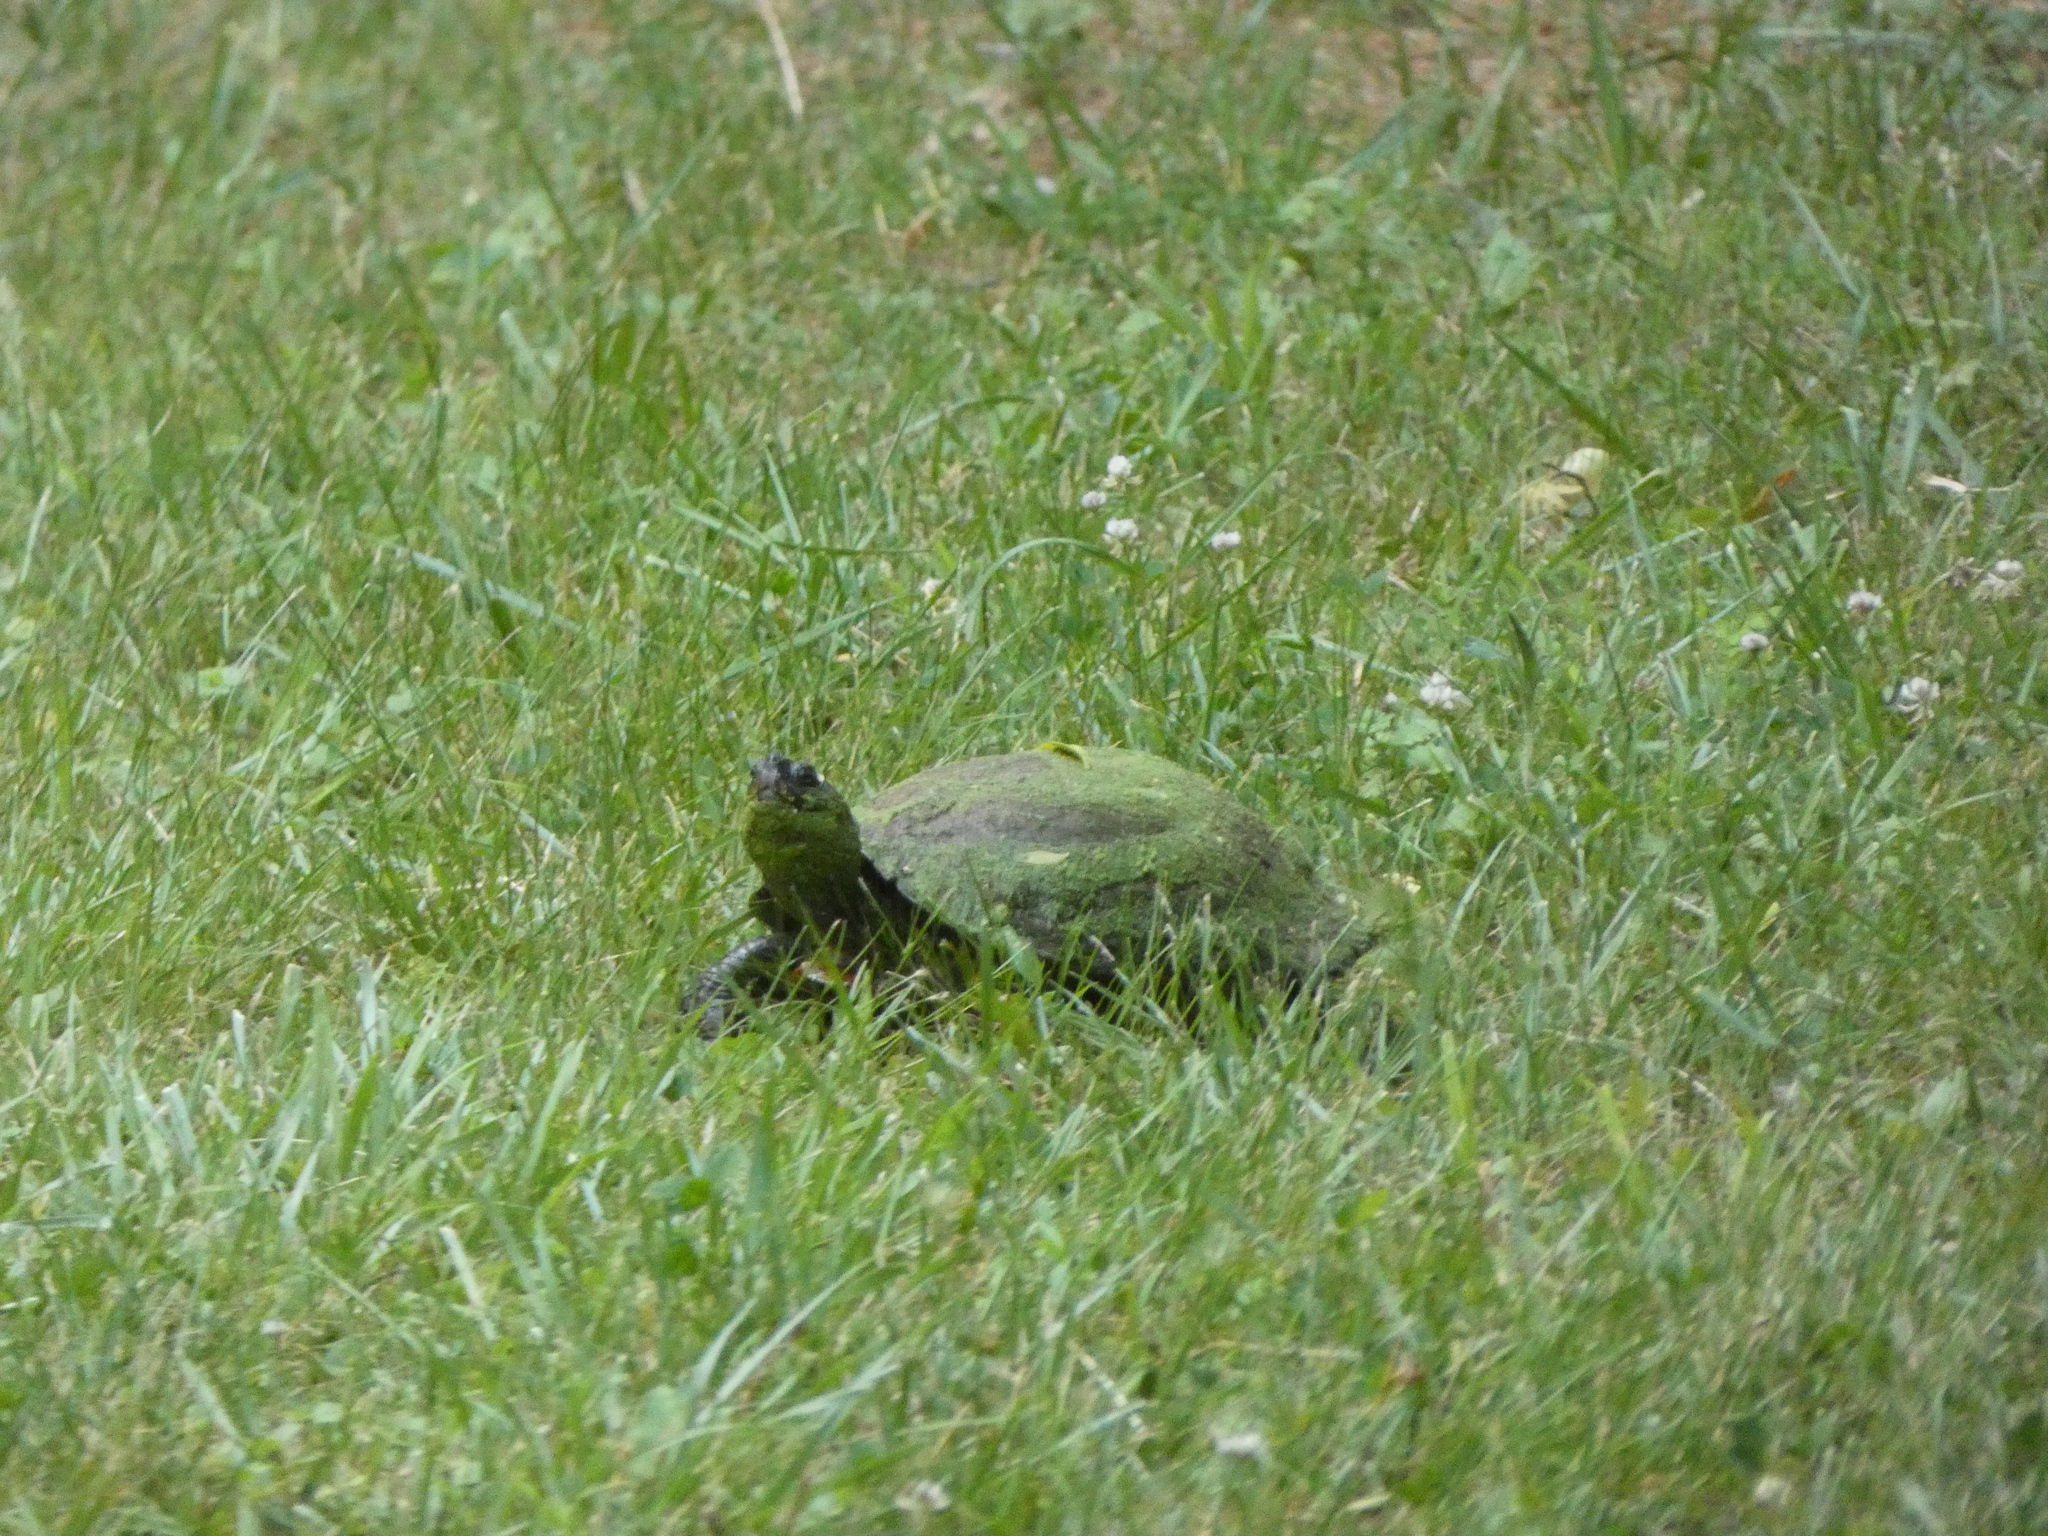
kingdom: Animalia
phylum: Chordata
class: Testudines
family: Emydidae
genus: Trachemys
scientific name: Trachemys scripta
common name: Slider
